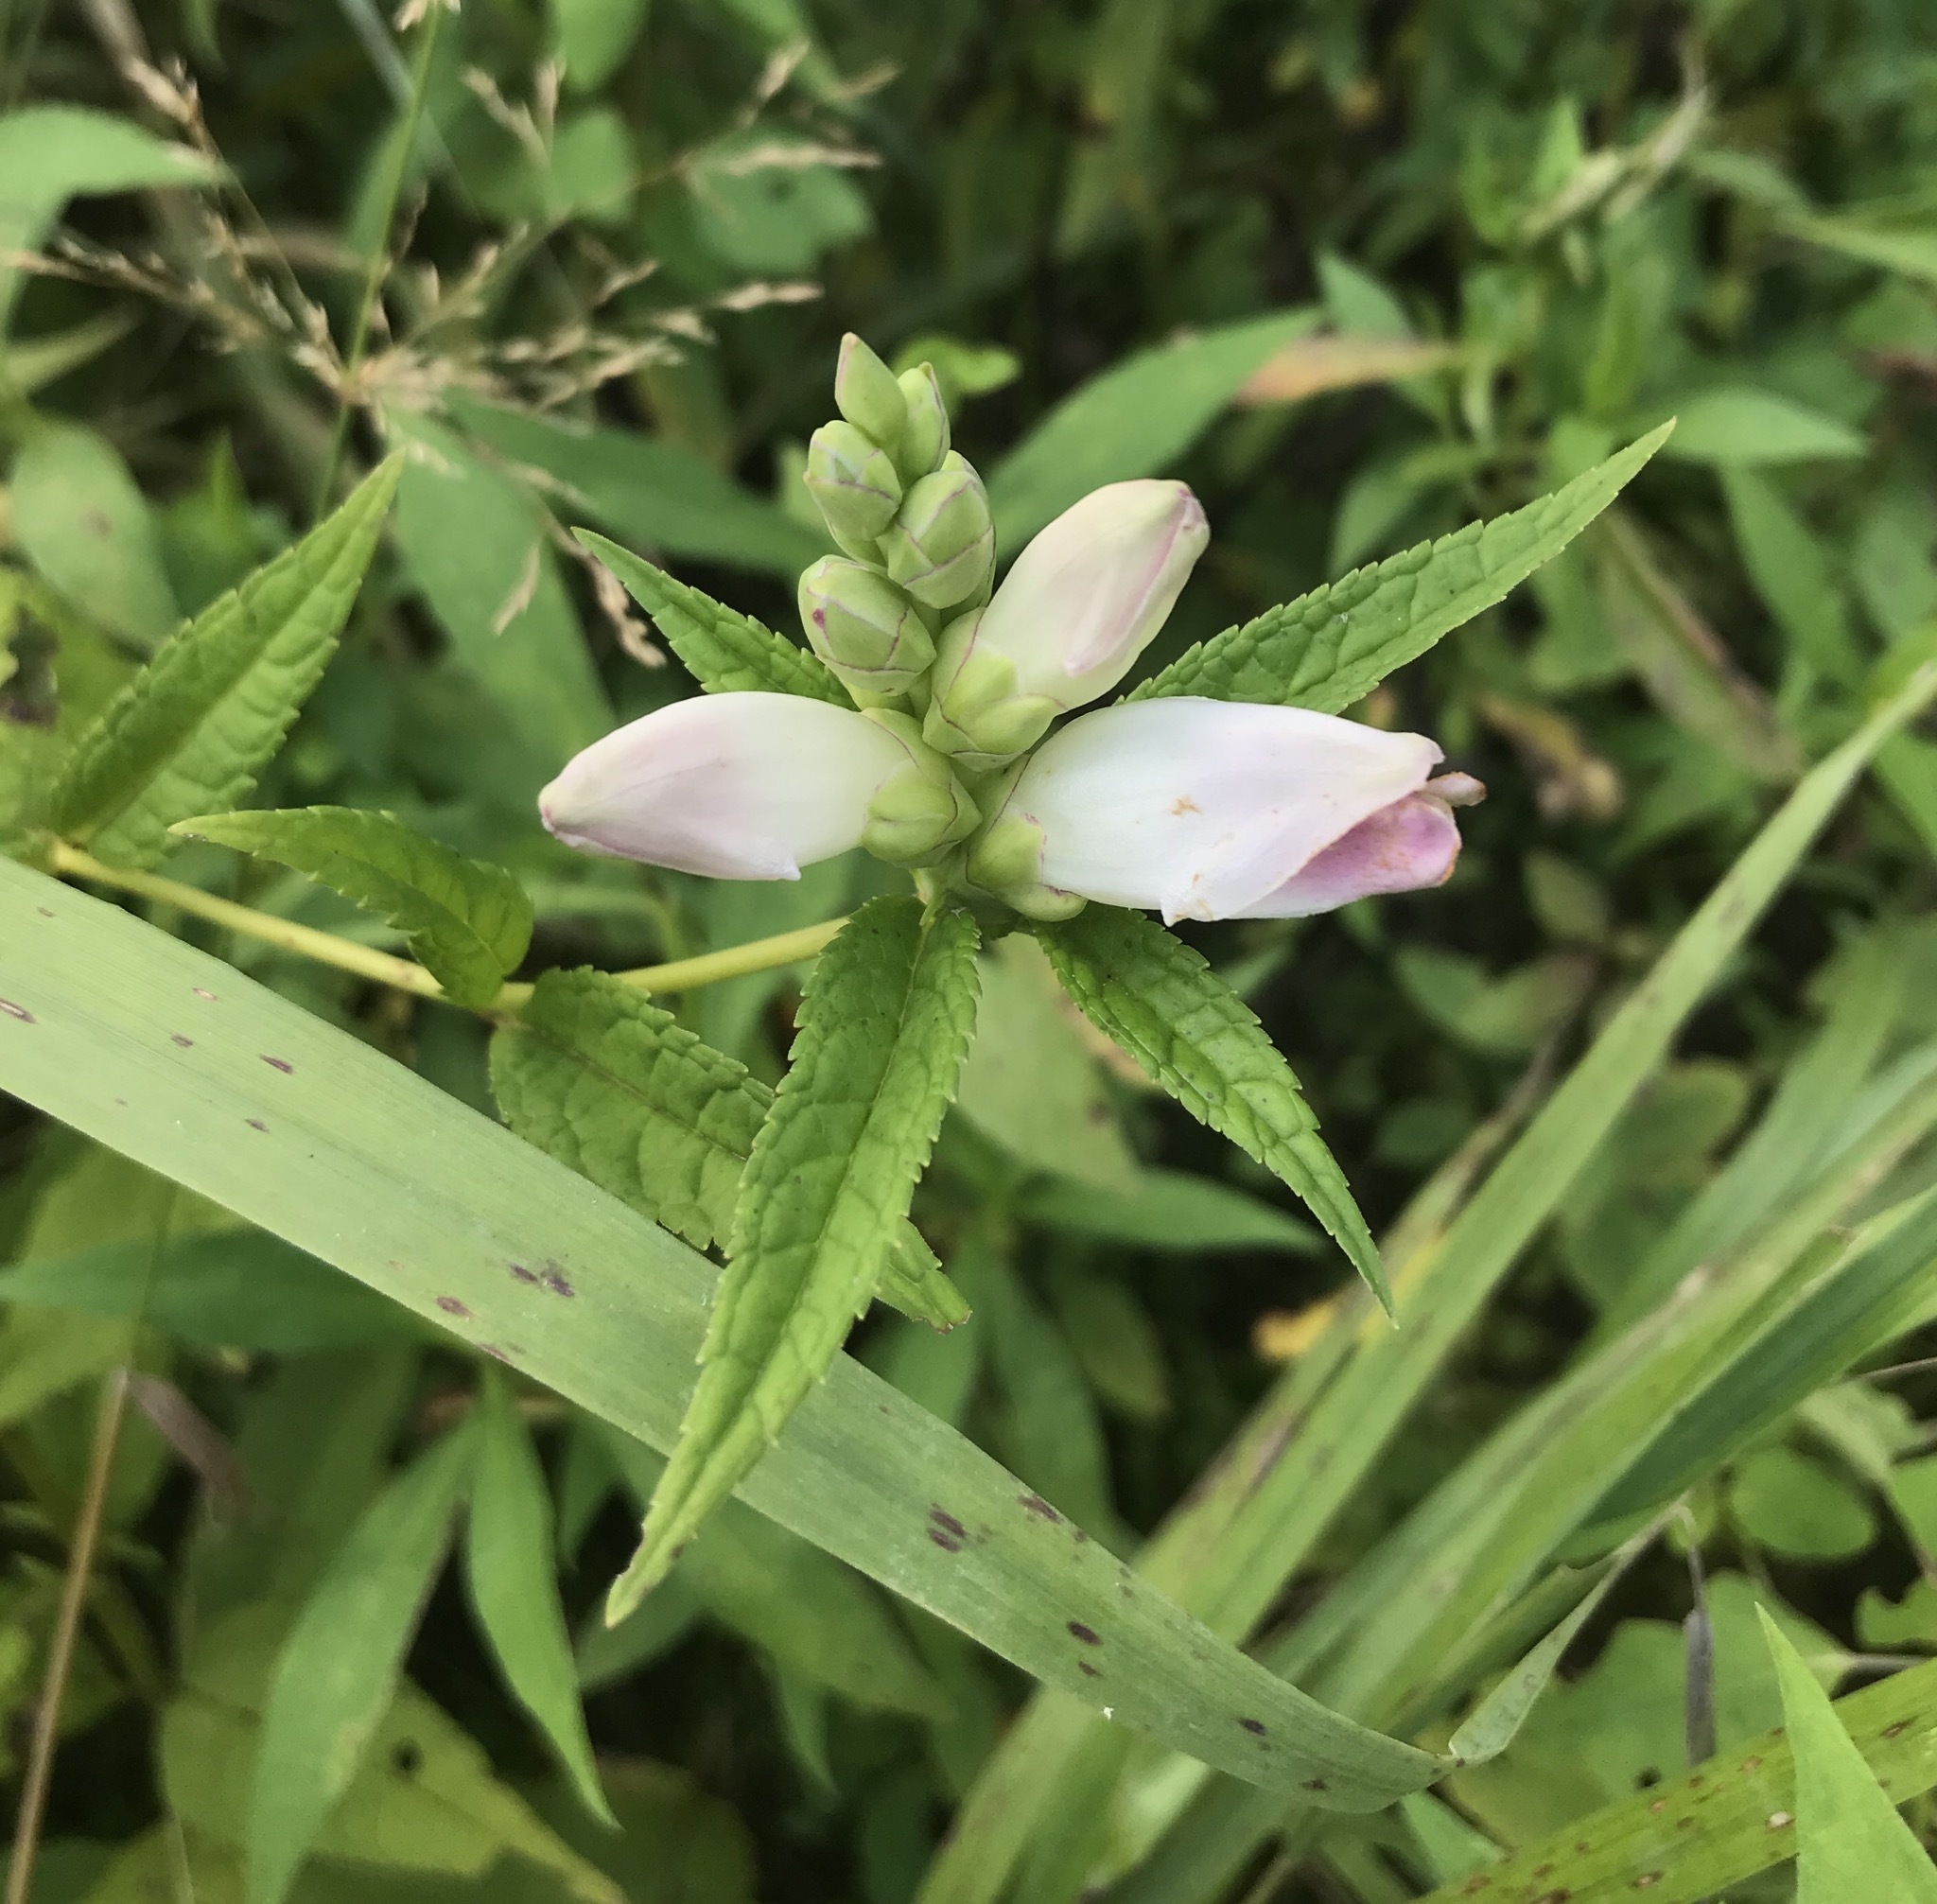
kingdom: Plantae
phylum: Tracheophyta
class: Magnoliopsida
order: Lamiales
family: Plantaginaceae
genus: Chelone
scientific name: Chelone glabra
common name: Snakehead
